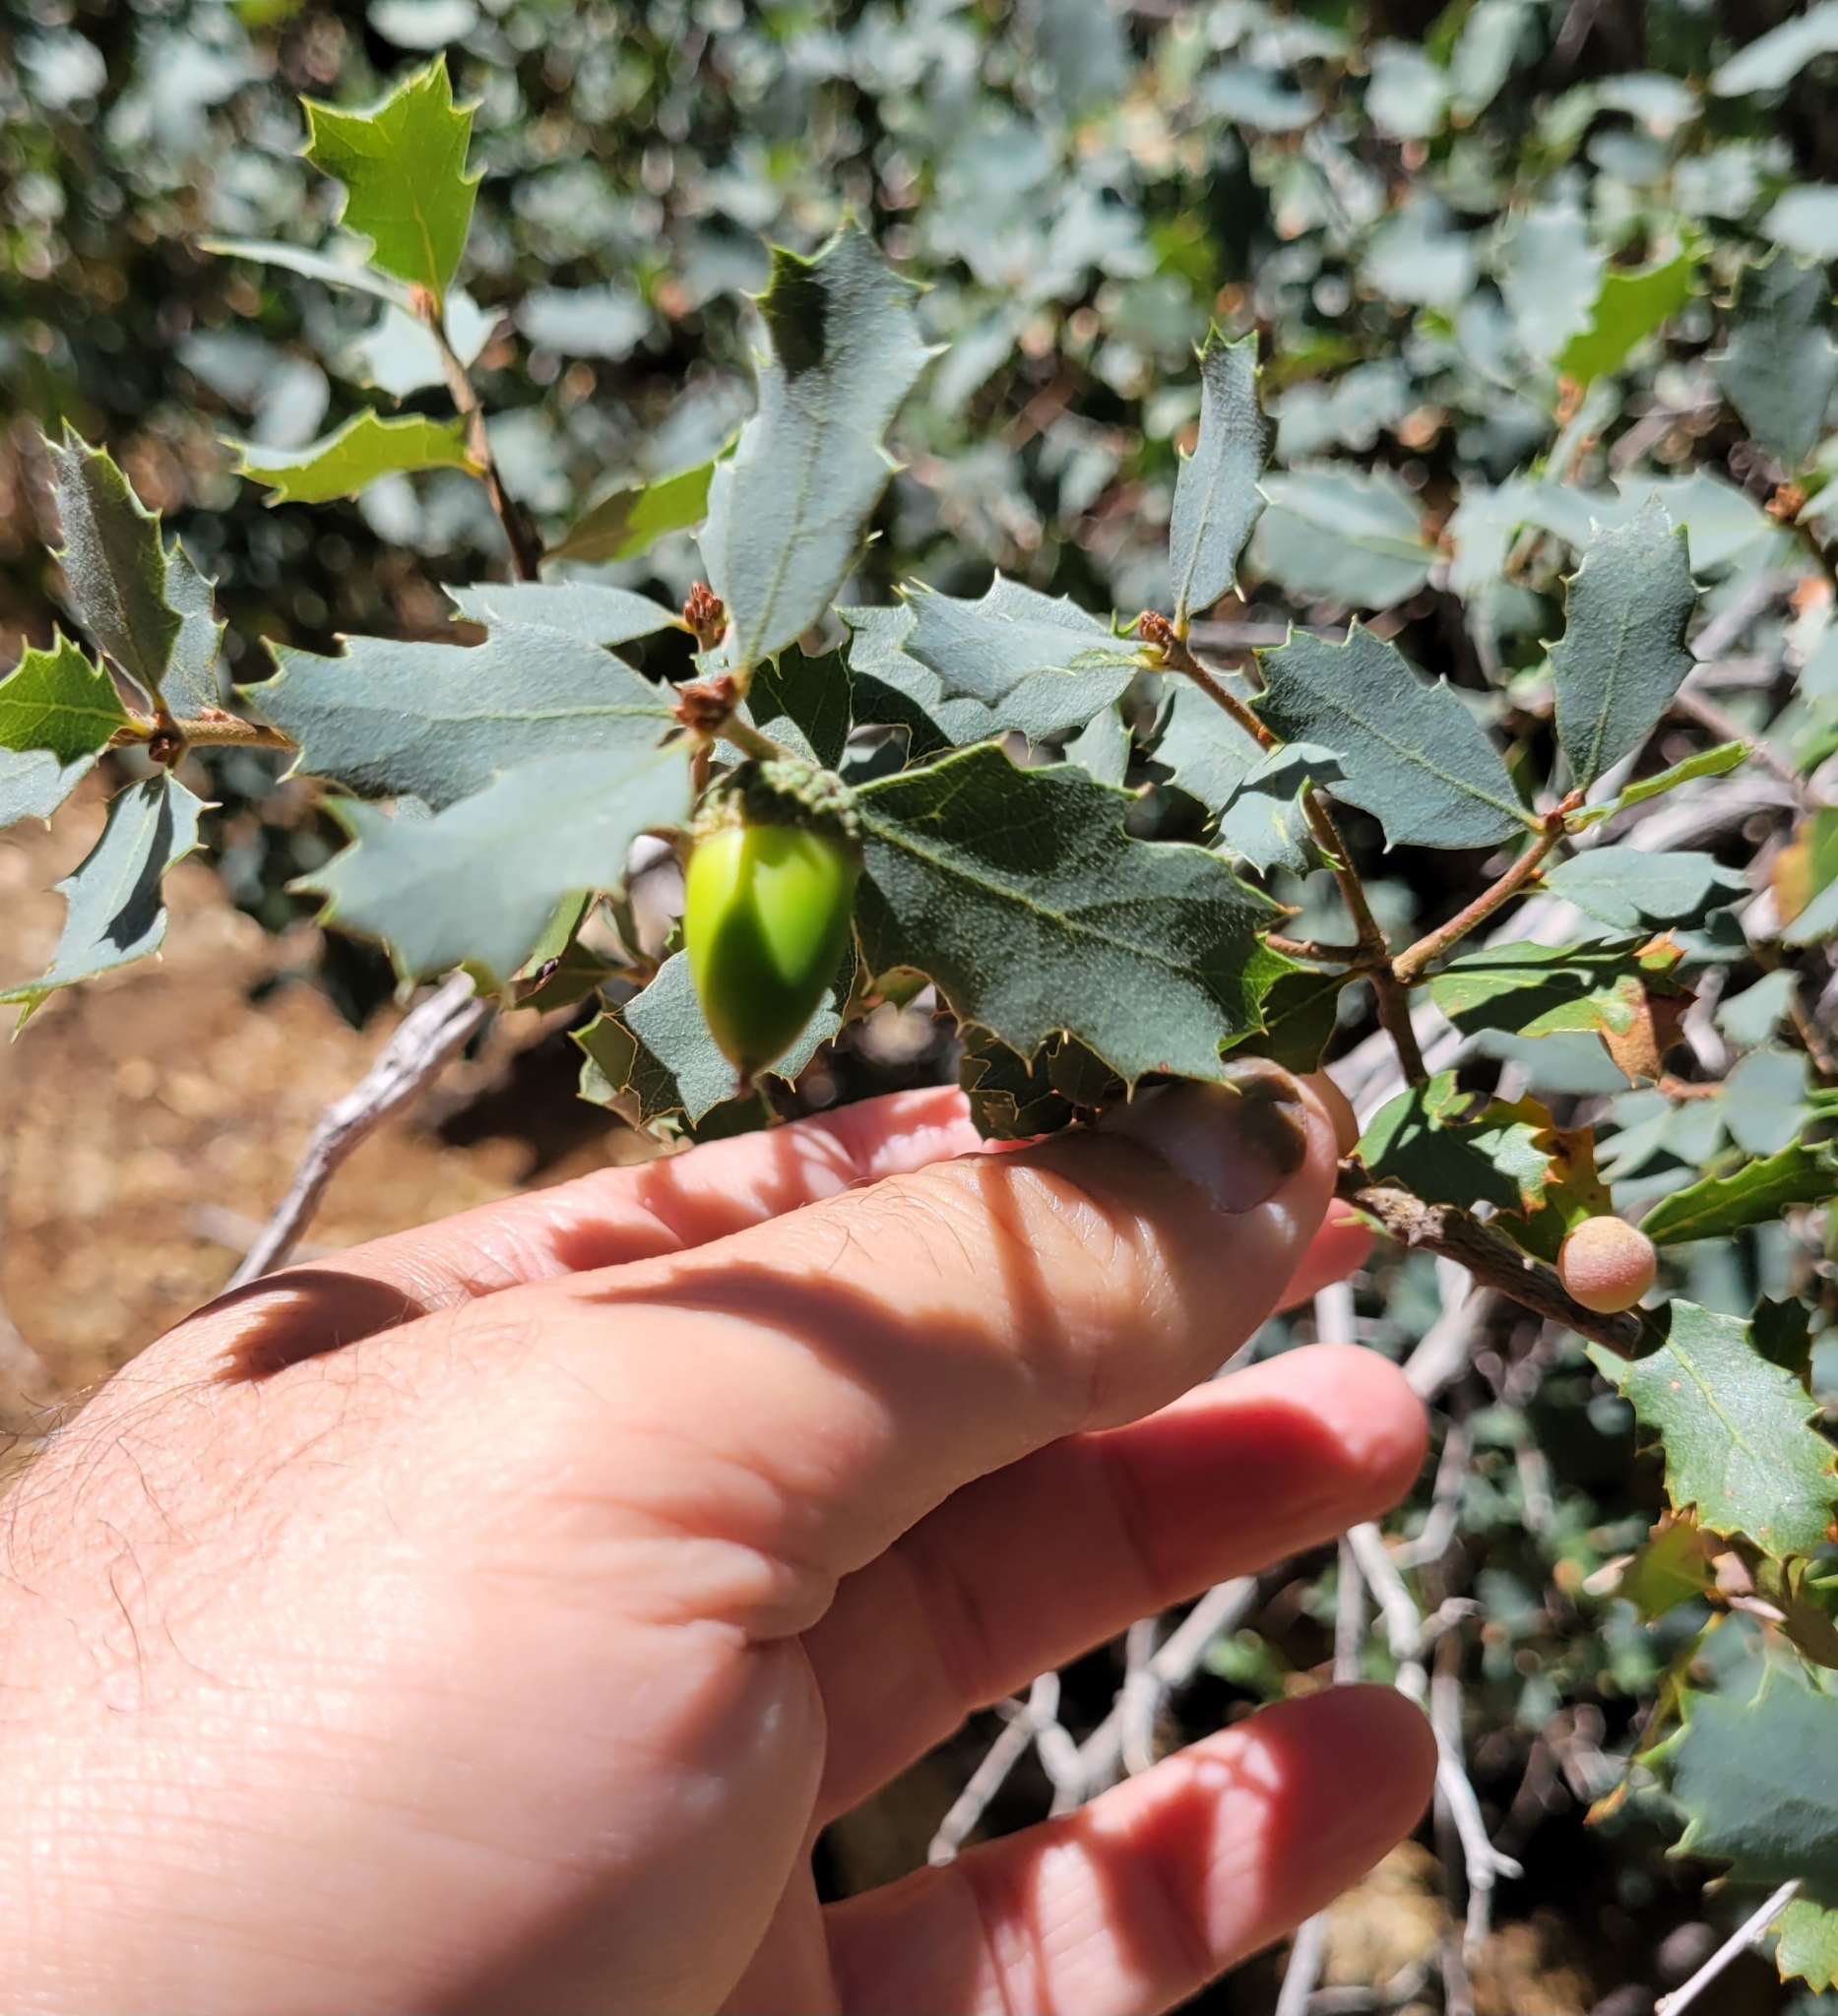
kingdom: Plantae
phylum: Tracheophyta
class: Magnoliopsida
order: Fagales
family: Fagaceae
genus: Quercus
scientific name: Quercus john-tuckeri
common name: Tucker's oak
